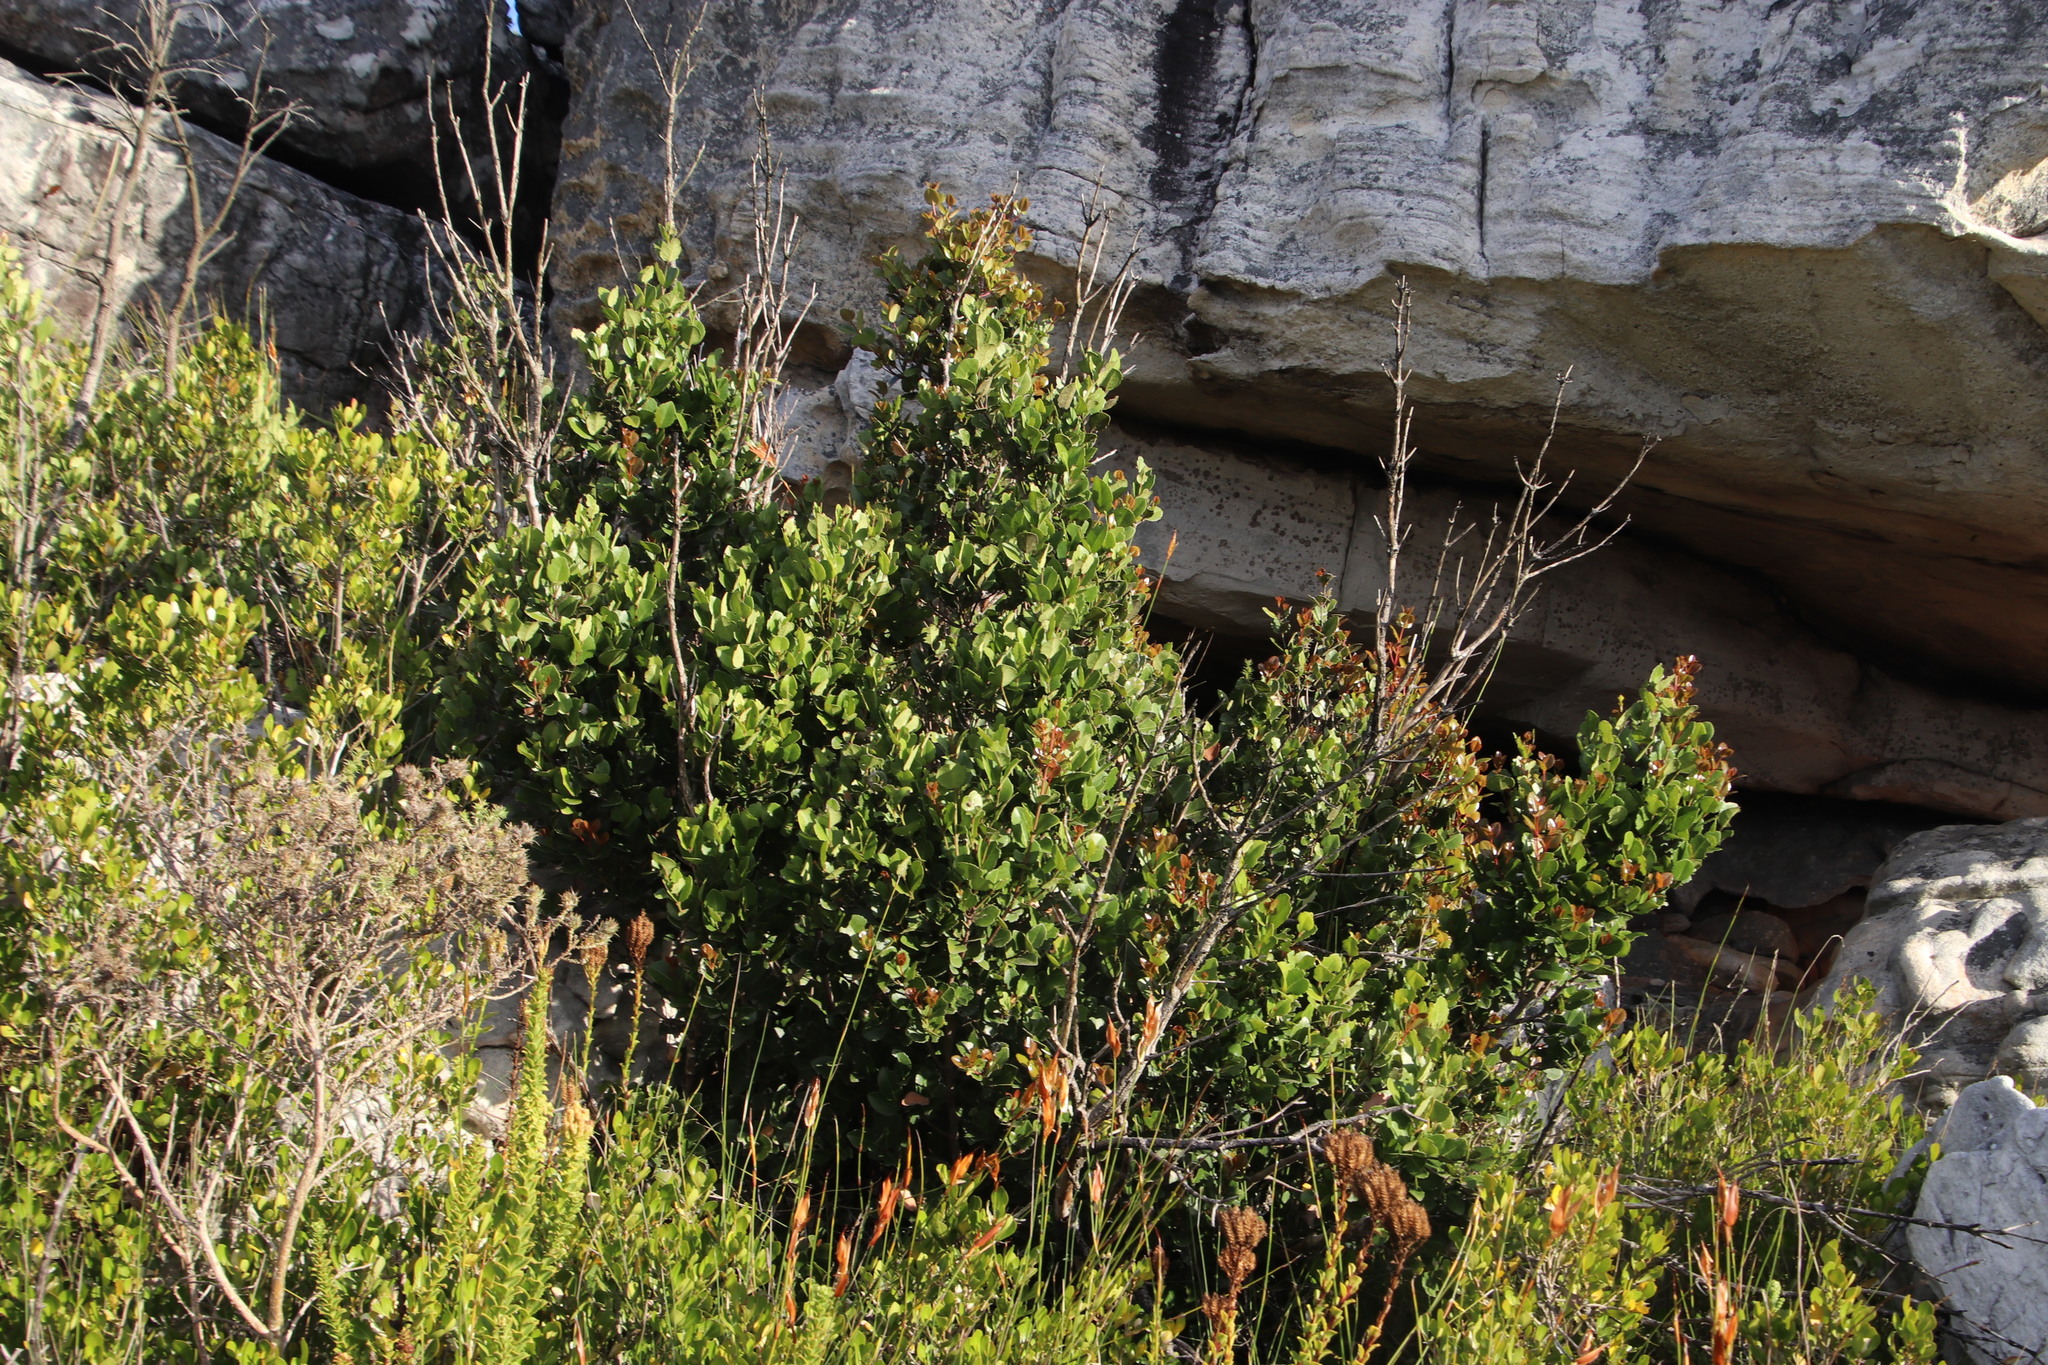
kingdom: Plantae
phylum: Tracheophyta
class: Magnoliopsida
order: Celastrales
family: Celastraceae
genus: Cassine
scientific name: Cassine peragua
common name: Cape saffron
